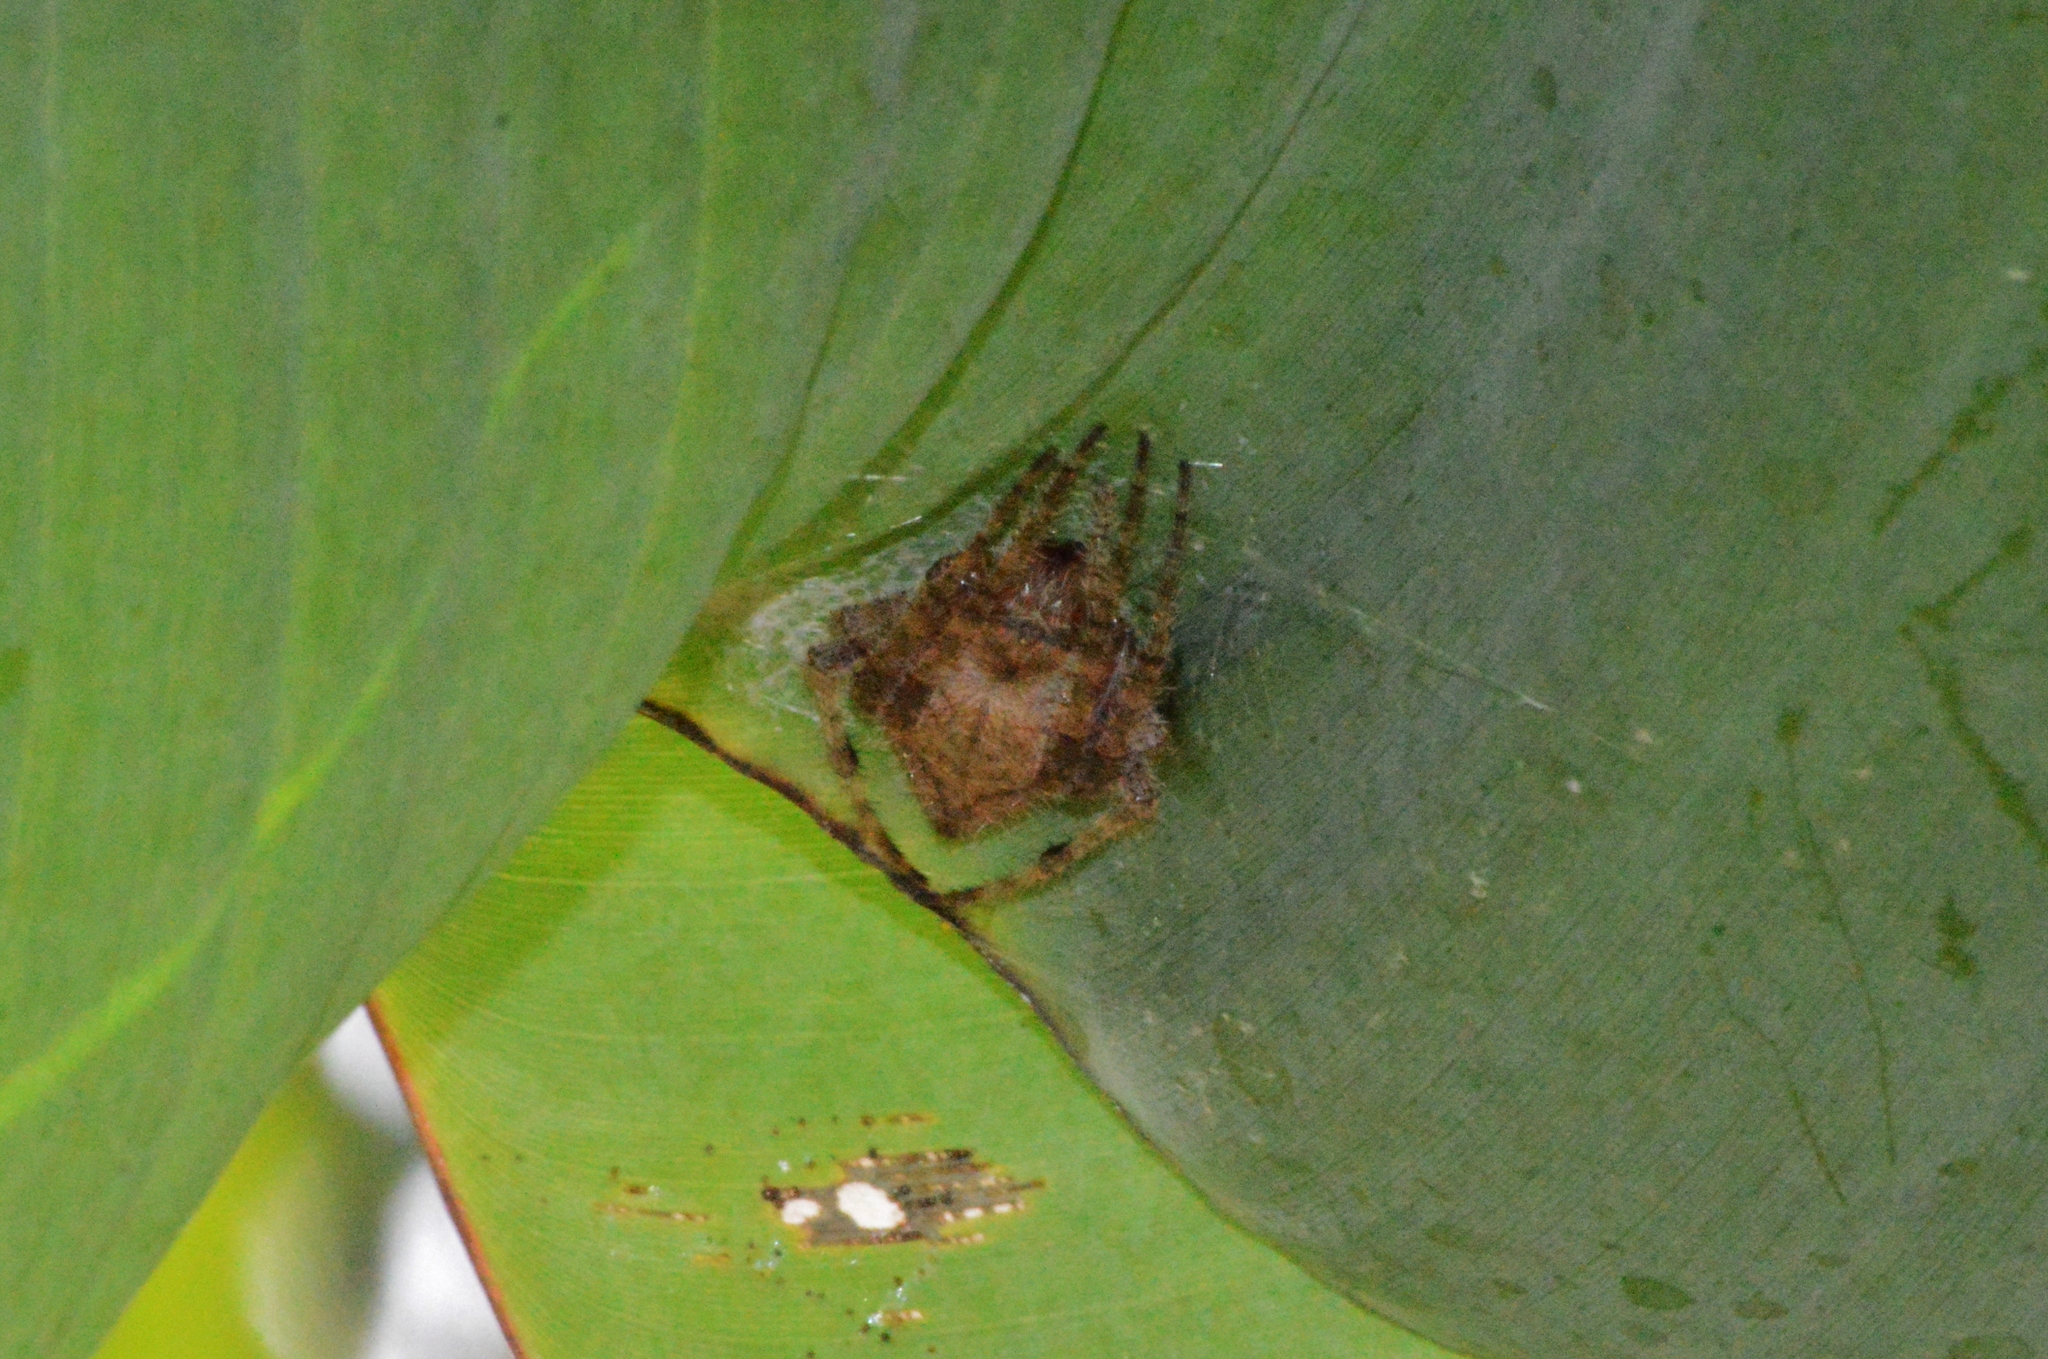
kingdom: Animalia
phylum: Arthropoda
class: Arachnida
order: Araneae
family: Araneidae
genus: Eriophora
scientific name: Eriophora edax
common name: Orb weavers
